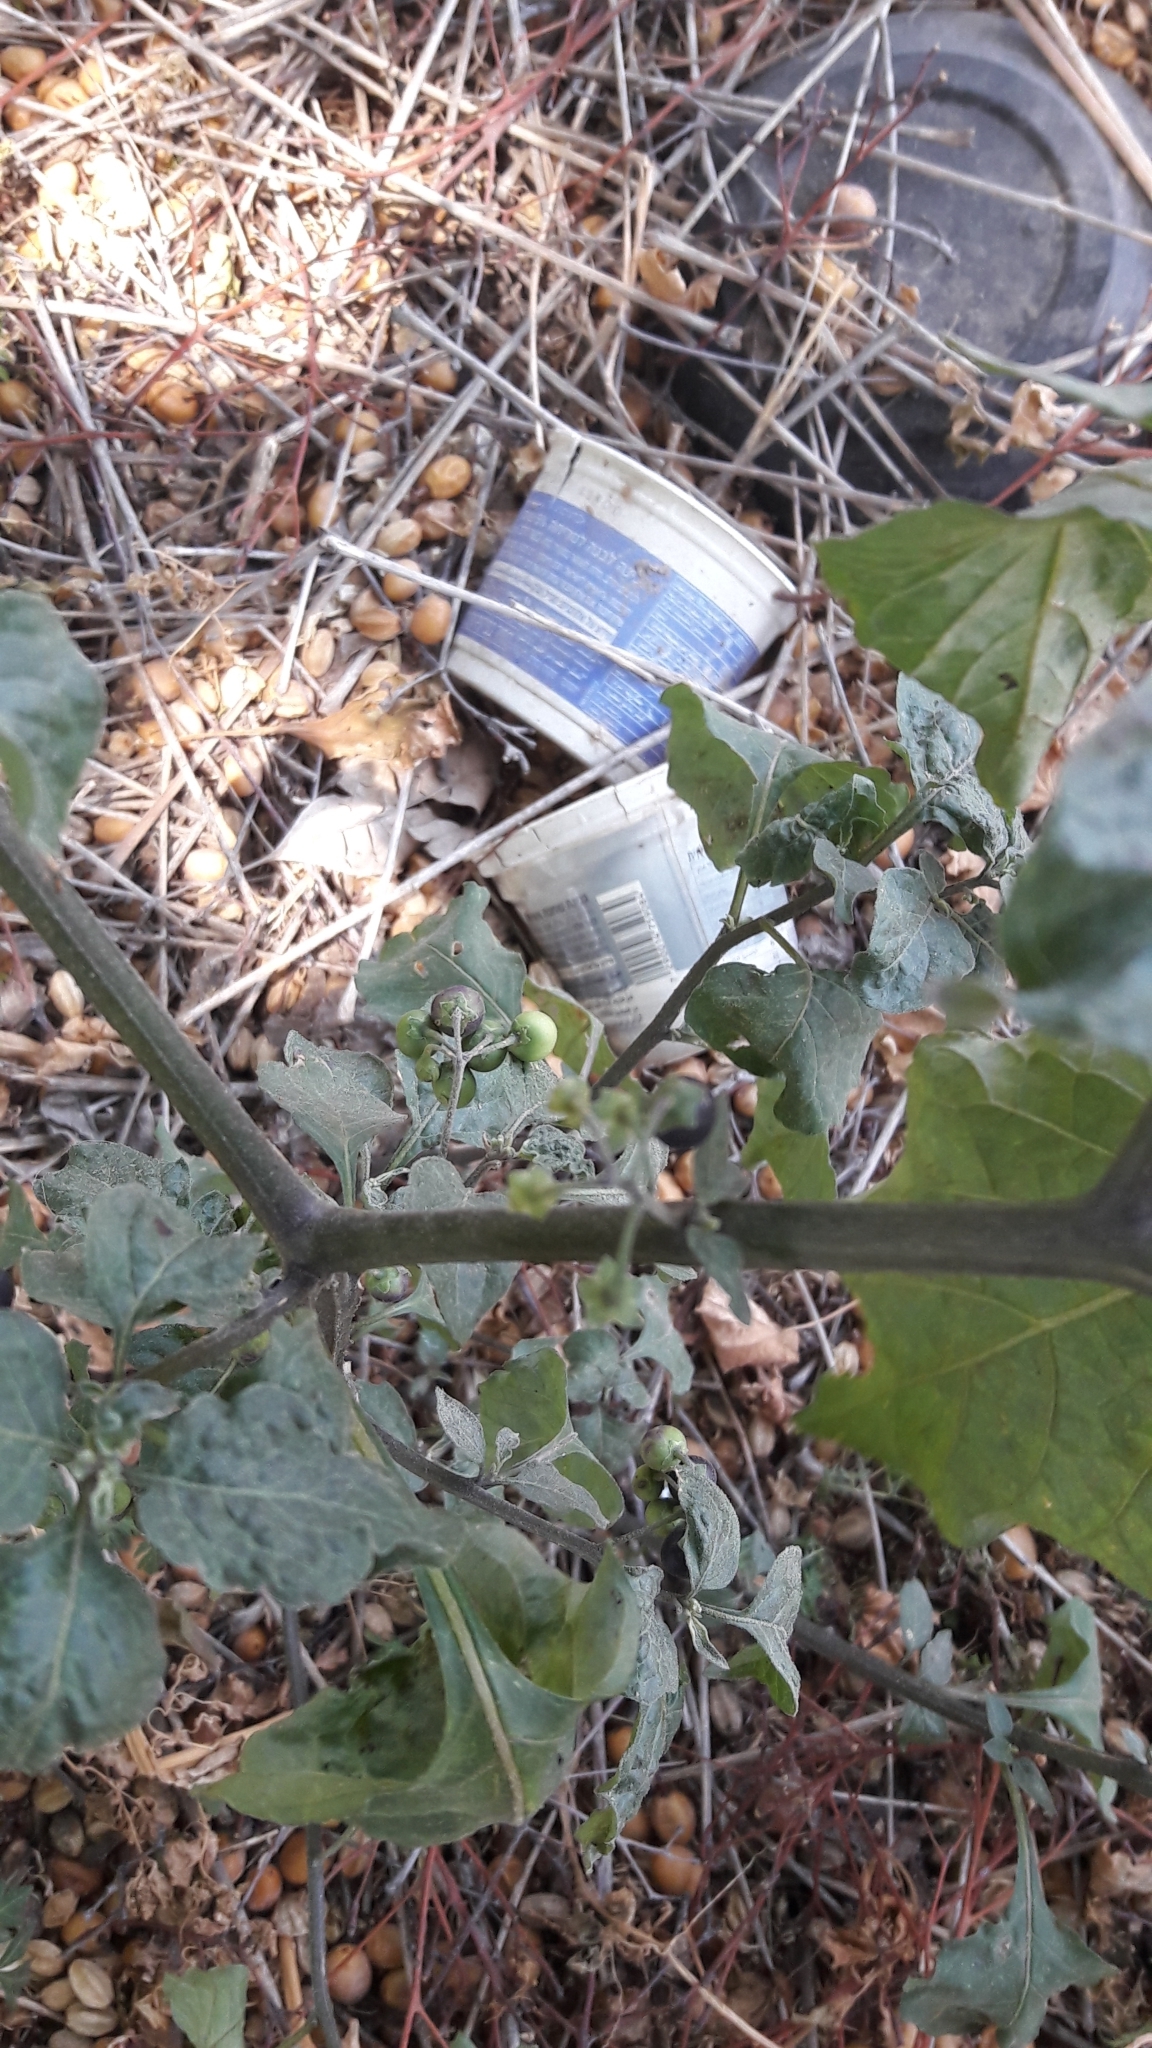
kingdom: Plantae
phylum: Tracheophyta
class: Magnoliopsida
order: Solanales
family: Solanaceae
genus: Solanum
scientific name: Solanum nigrum
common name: Black nightshade
